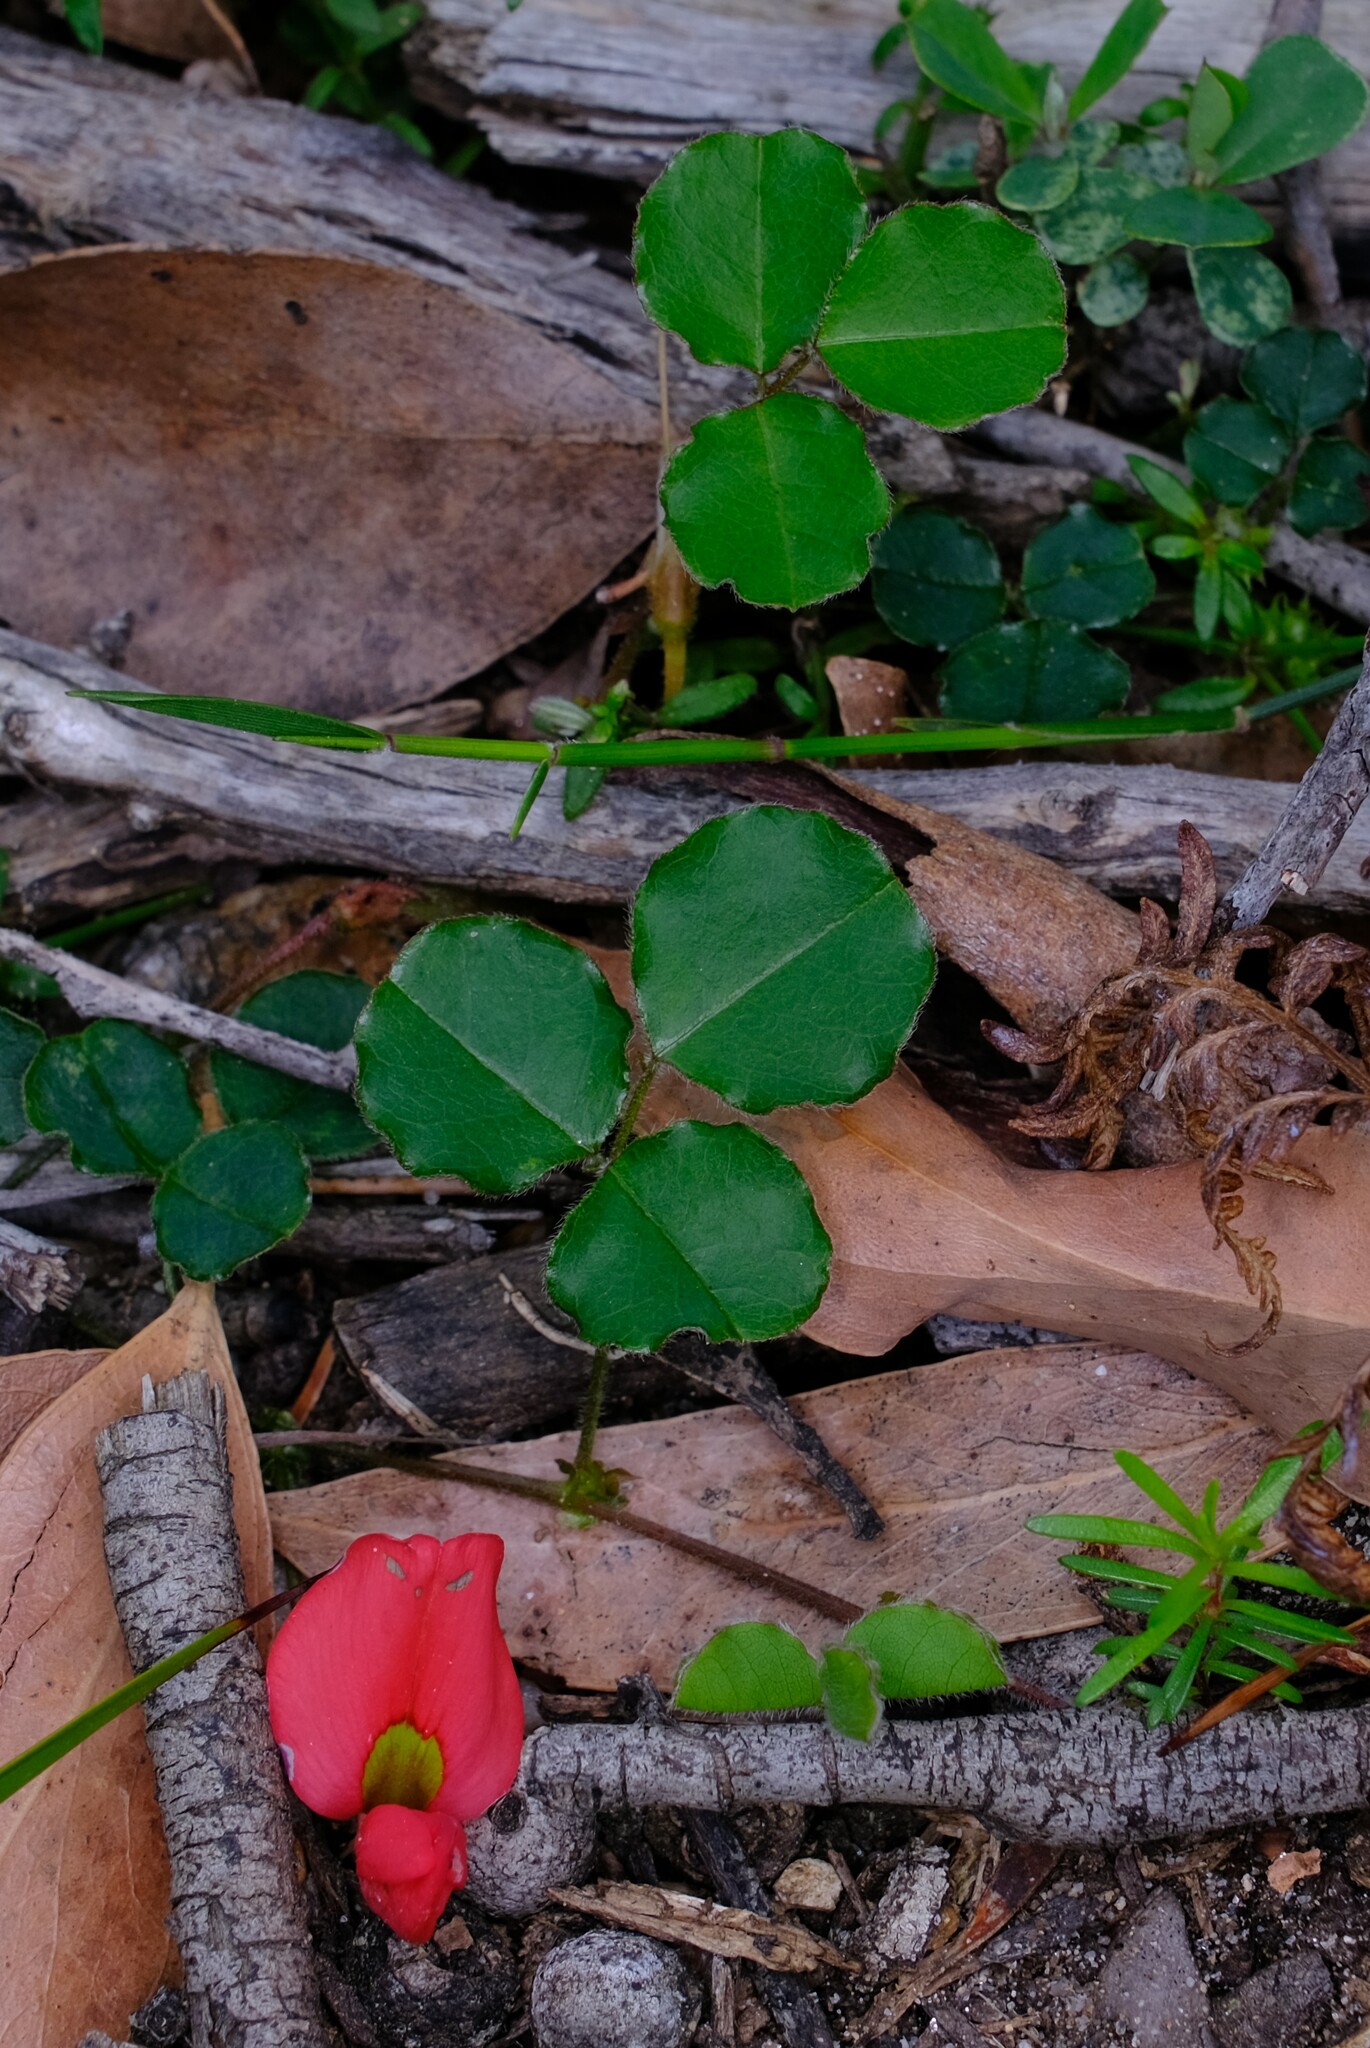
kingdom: Plantae
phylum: Tracheophyta
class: Magnoliopsida
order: Fabales
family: Fabaceae
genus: Kennedia
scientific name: Kennedia prostrata
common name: Running-postman
